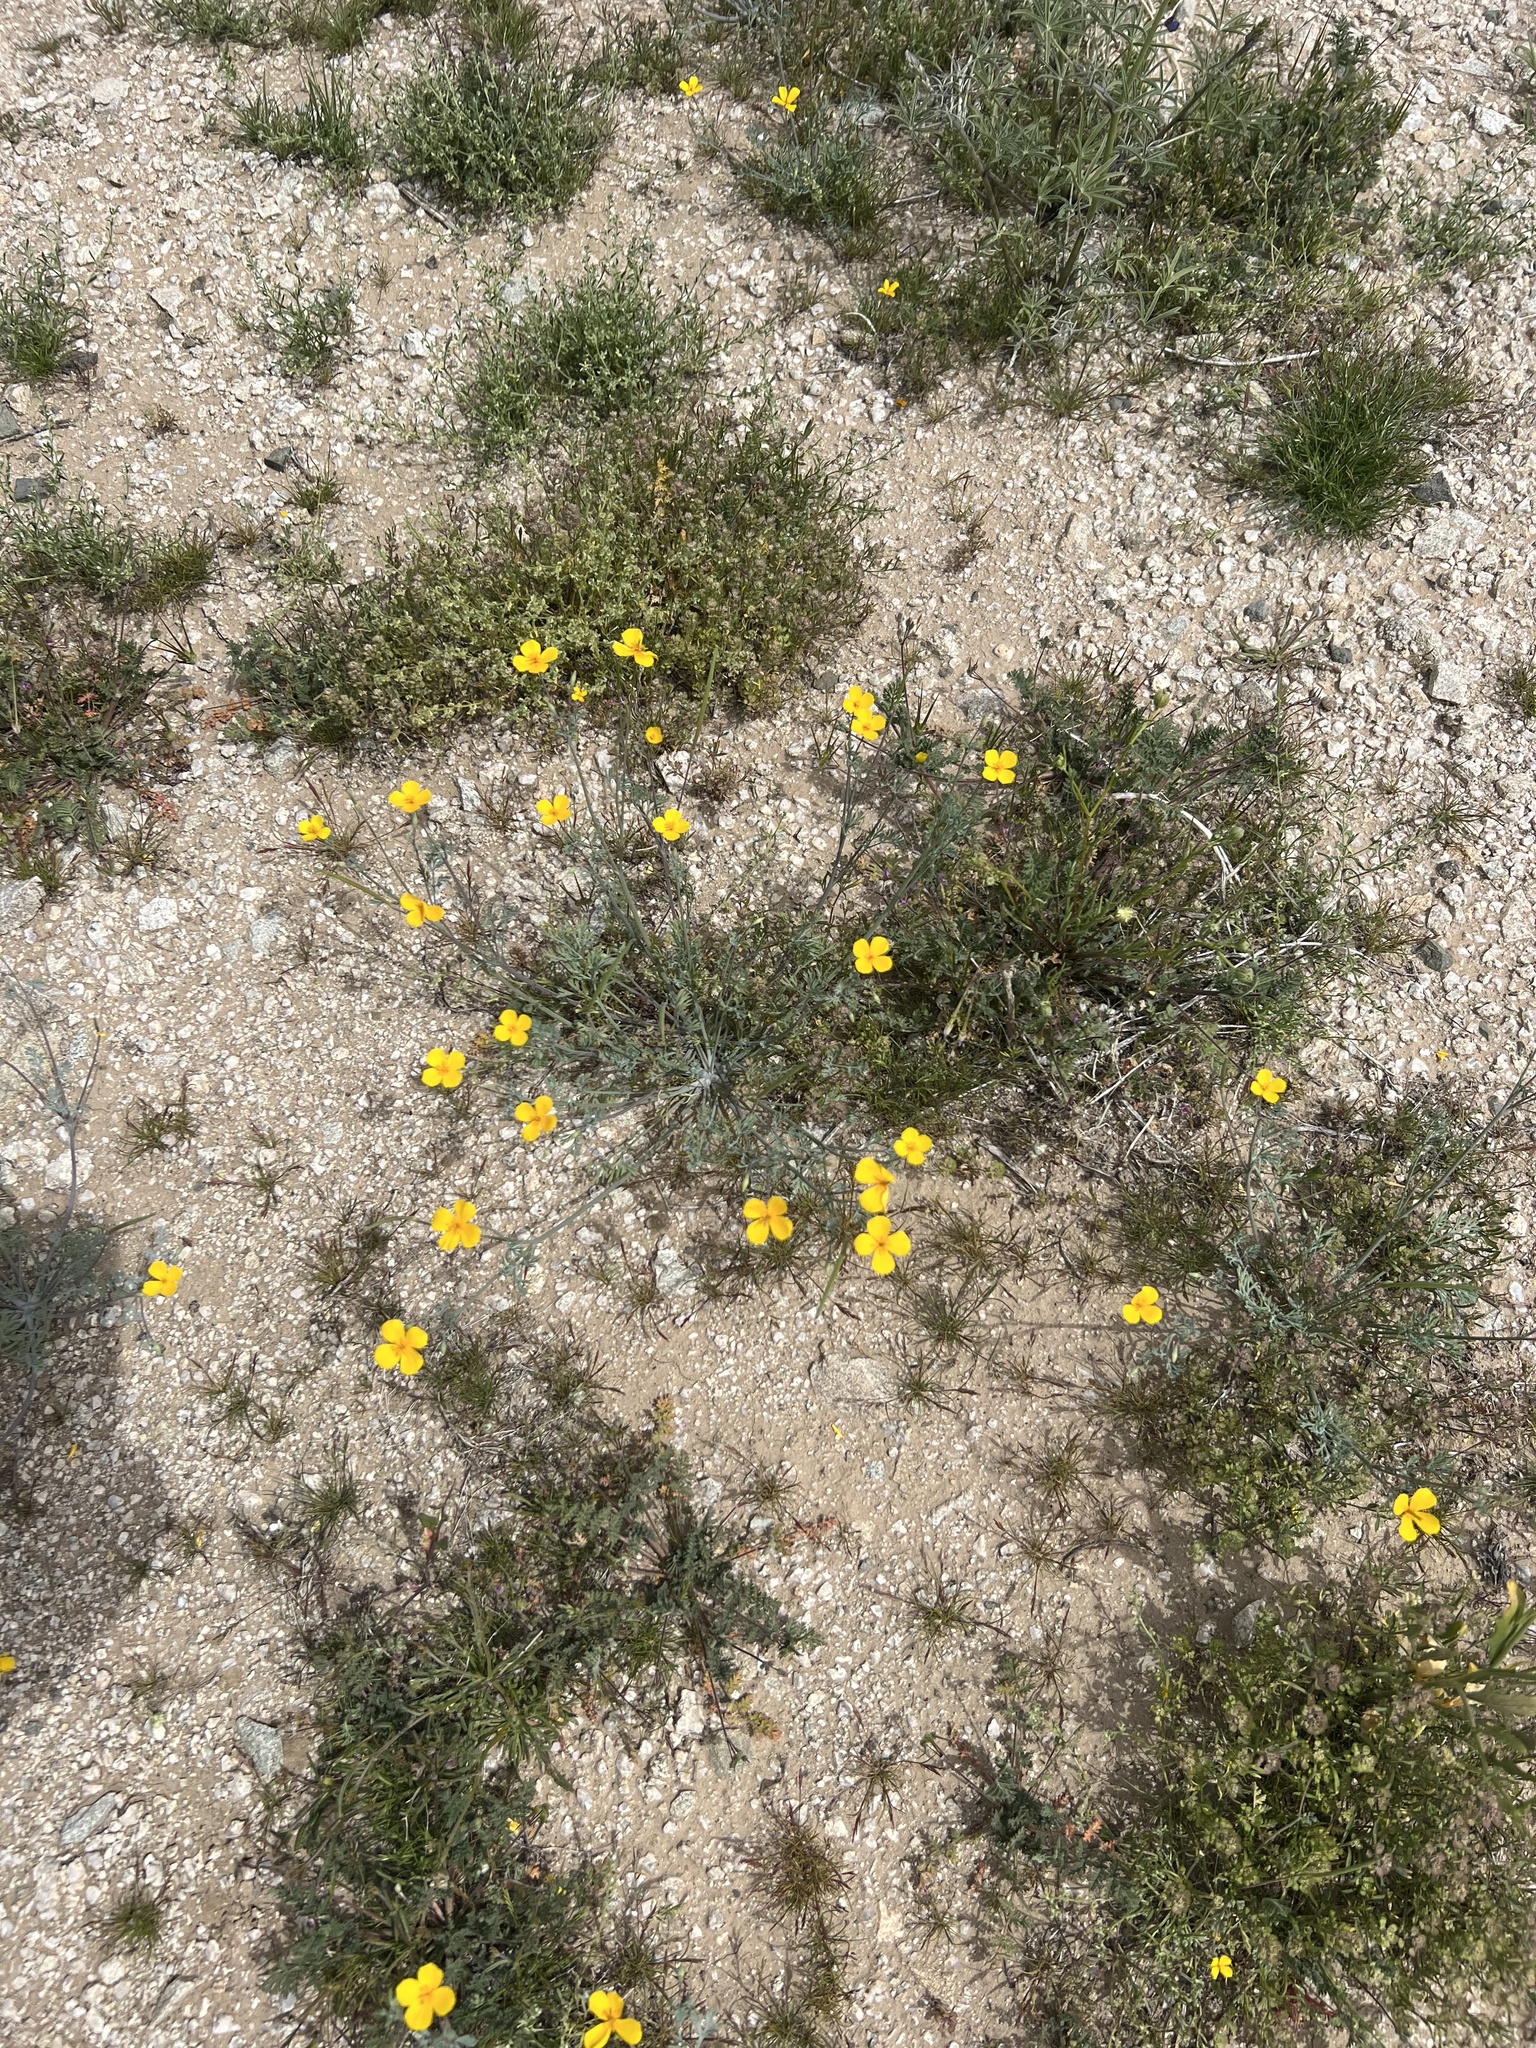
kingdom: Plantae
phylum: Tracheophyta
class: Magnoliopsida
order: Ranunculales
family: Papaveraceae
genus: Eschscholzia
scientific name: Eschscholzia minutiflora
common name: Small-flower california-poppy
